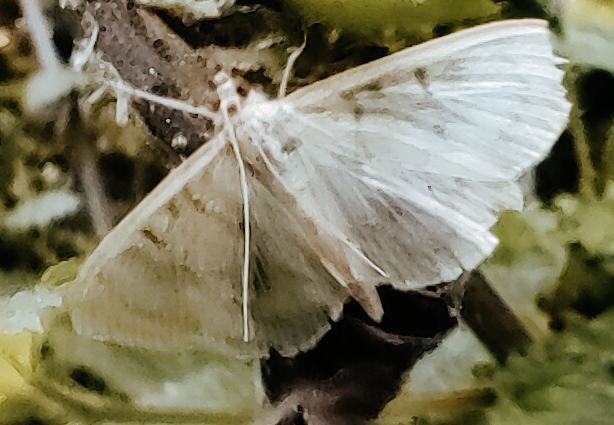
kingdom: Animalia
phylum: Arthropoda
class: Insecta
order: Lepidoptera
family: Crambidae
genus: Patania
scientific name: Patania ruralis
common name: Mother of pearl
